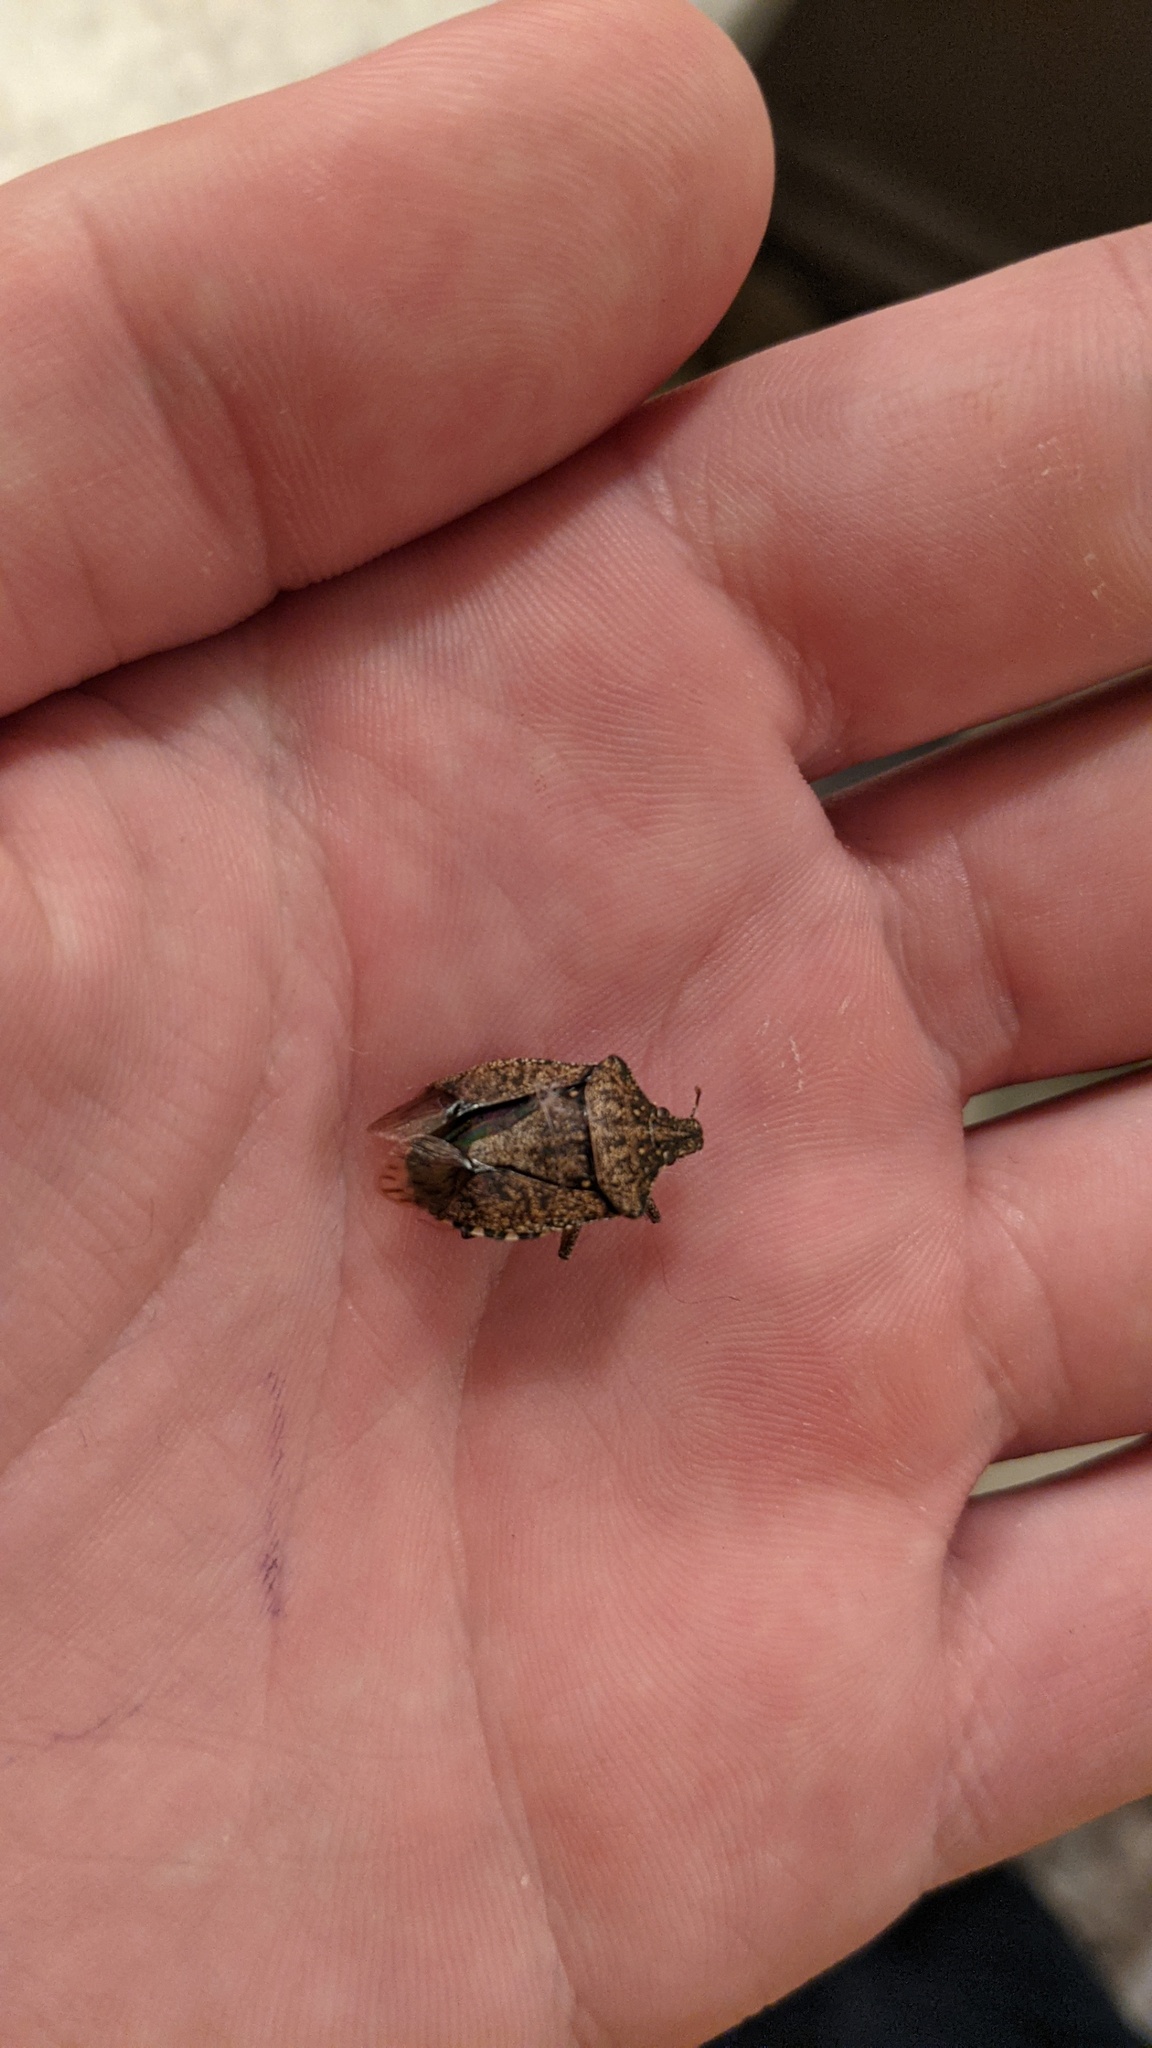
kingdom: Animalia
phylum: Arthropoda
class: Insecta
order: Hemiptera
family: Pentatomidae
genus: Halyomorpha
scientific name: Halyomorpha halys
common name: Brown marmorated stink bug
